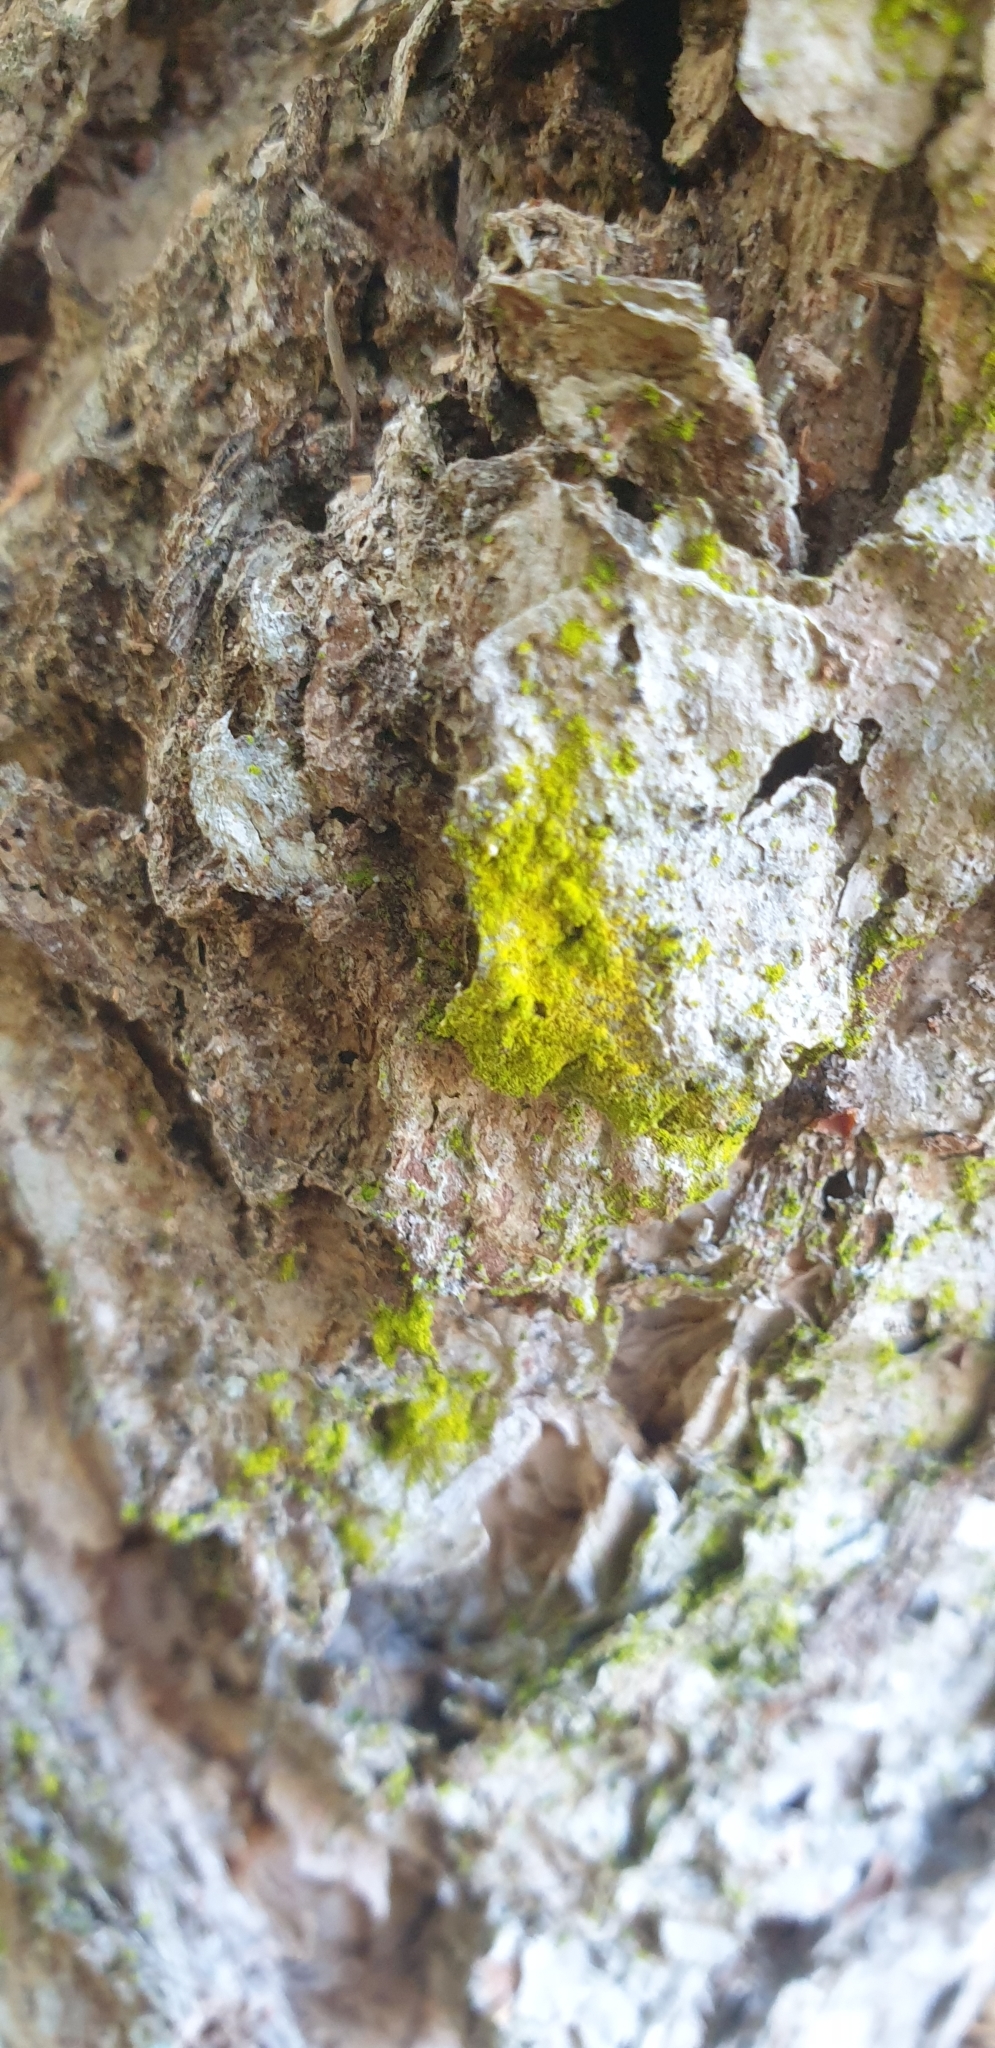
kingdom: Fungi
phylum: Ascomycota
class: Arthoniomycetes
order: Arthoniales
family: Chrysotrichaceae
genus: Chrysothrix
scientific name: Chrysothrix candelaris
